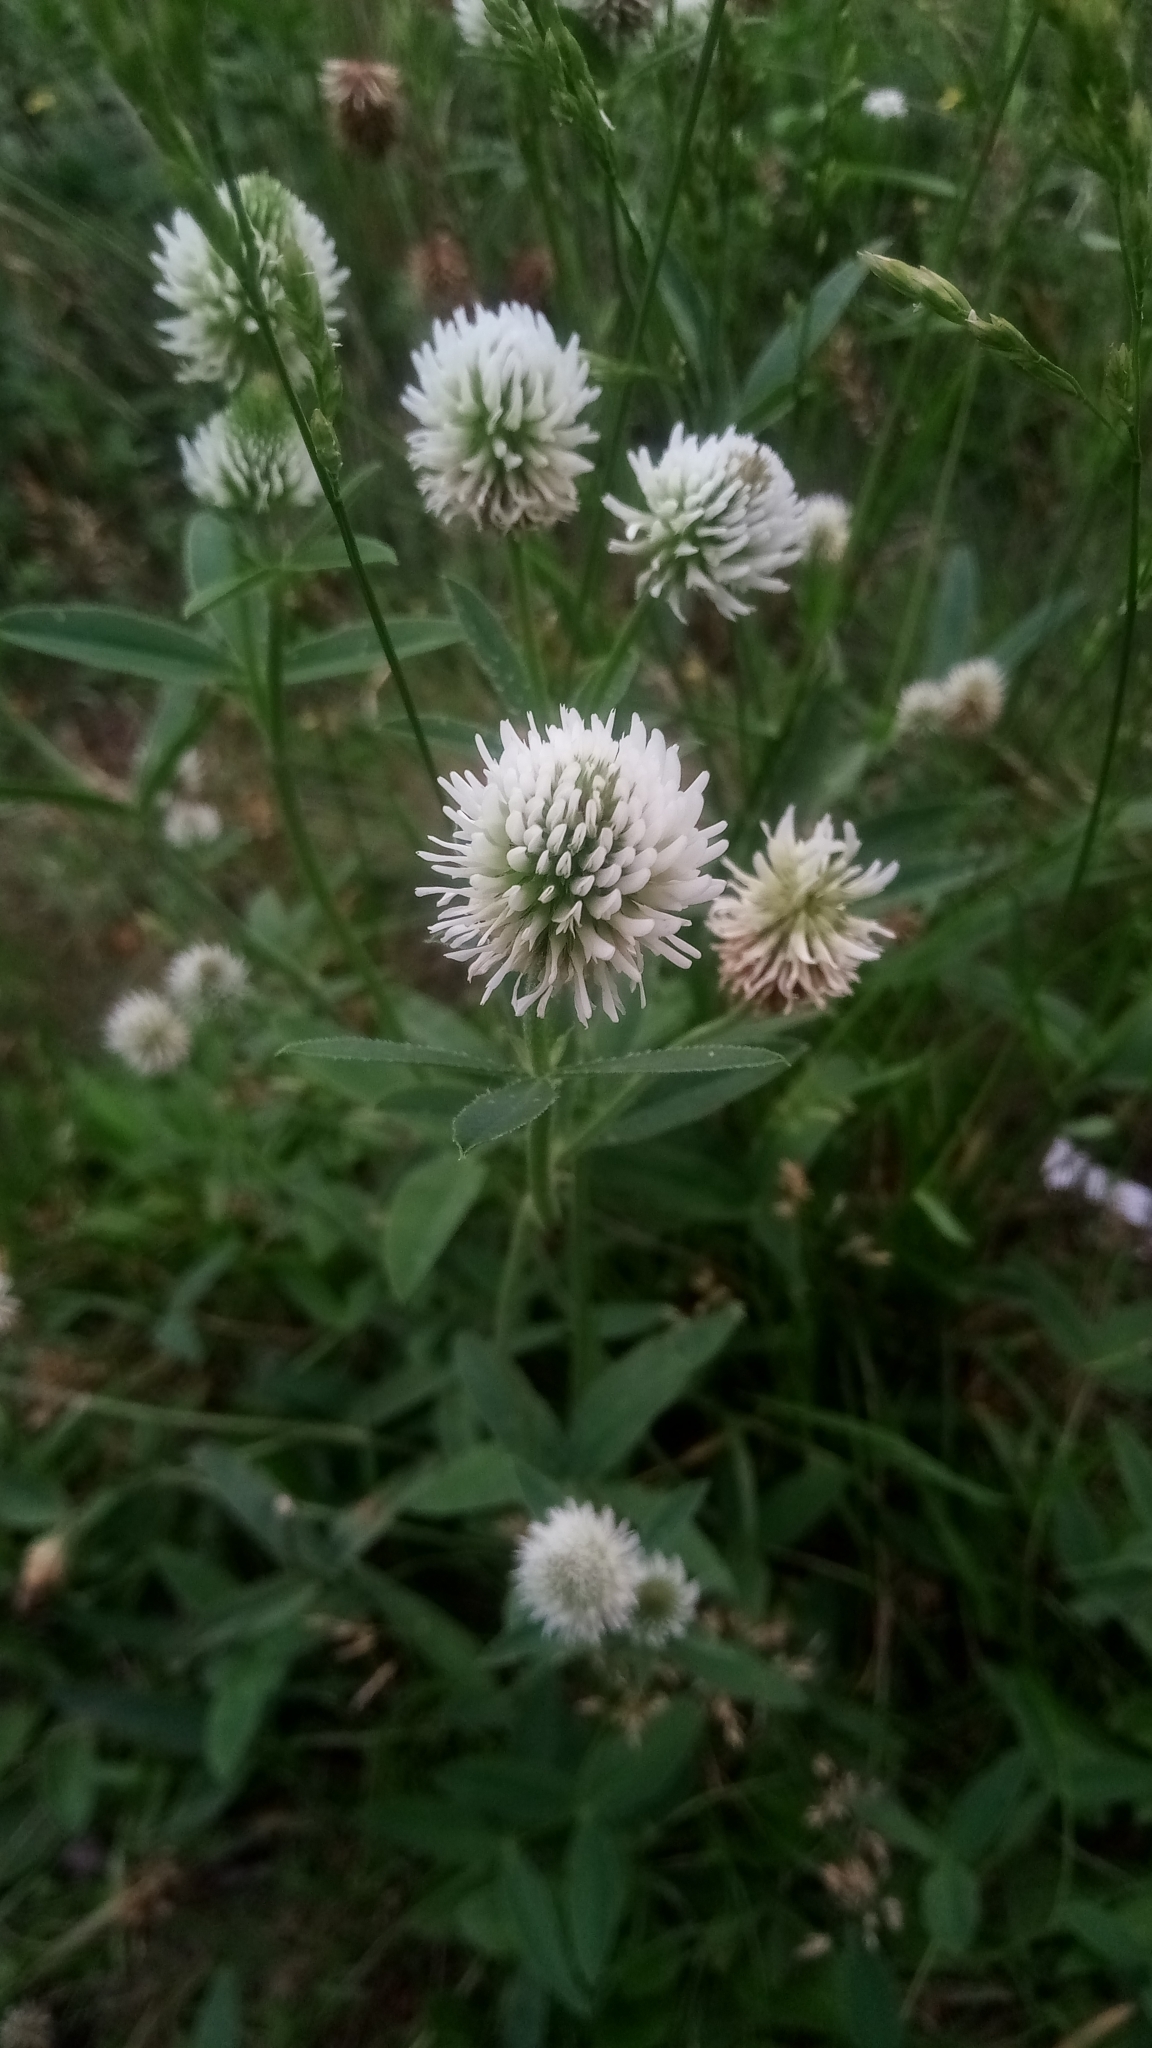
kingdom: Plantae
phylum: Tracheophyta
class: Magnoliopsida
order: Fabales
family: Fabaceae
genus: Trifolium
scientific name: Trifolium montanum
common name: Mountain clover
